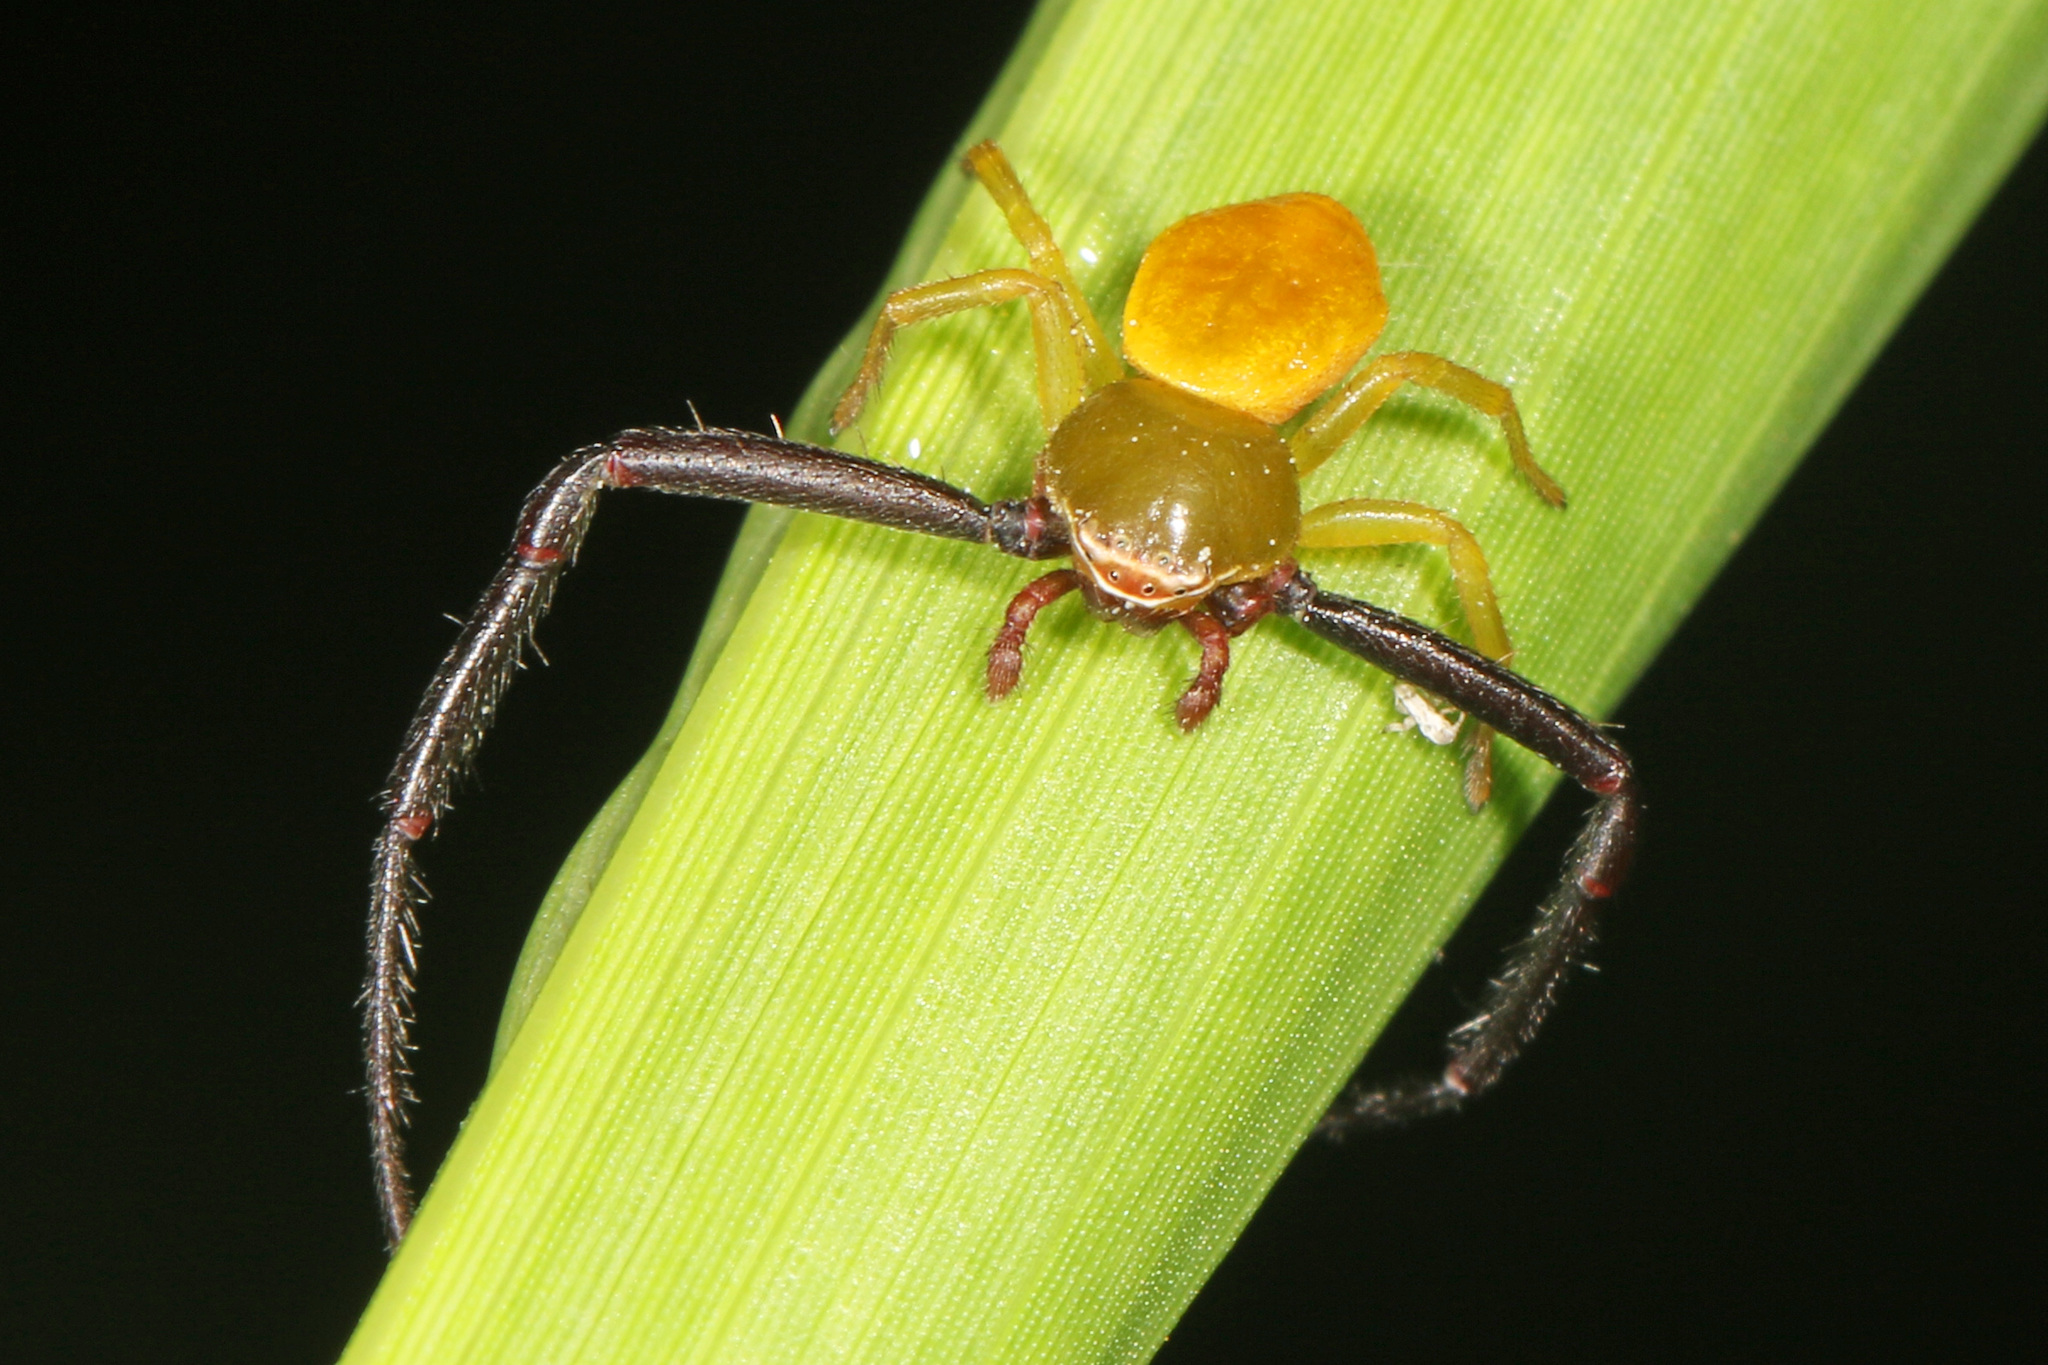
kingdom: Animalia
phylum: Arthropoda
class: Arachnida
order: Araneae
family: Thomisidae
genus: Misumenoides
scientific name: Misumenoides formosipes
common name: White-banded crab spider
